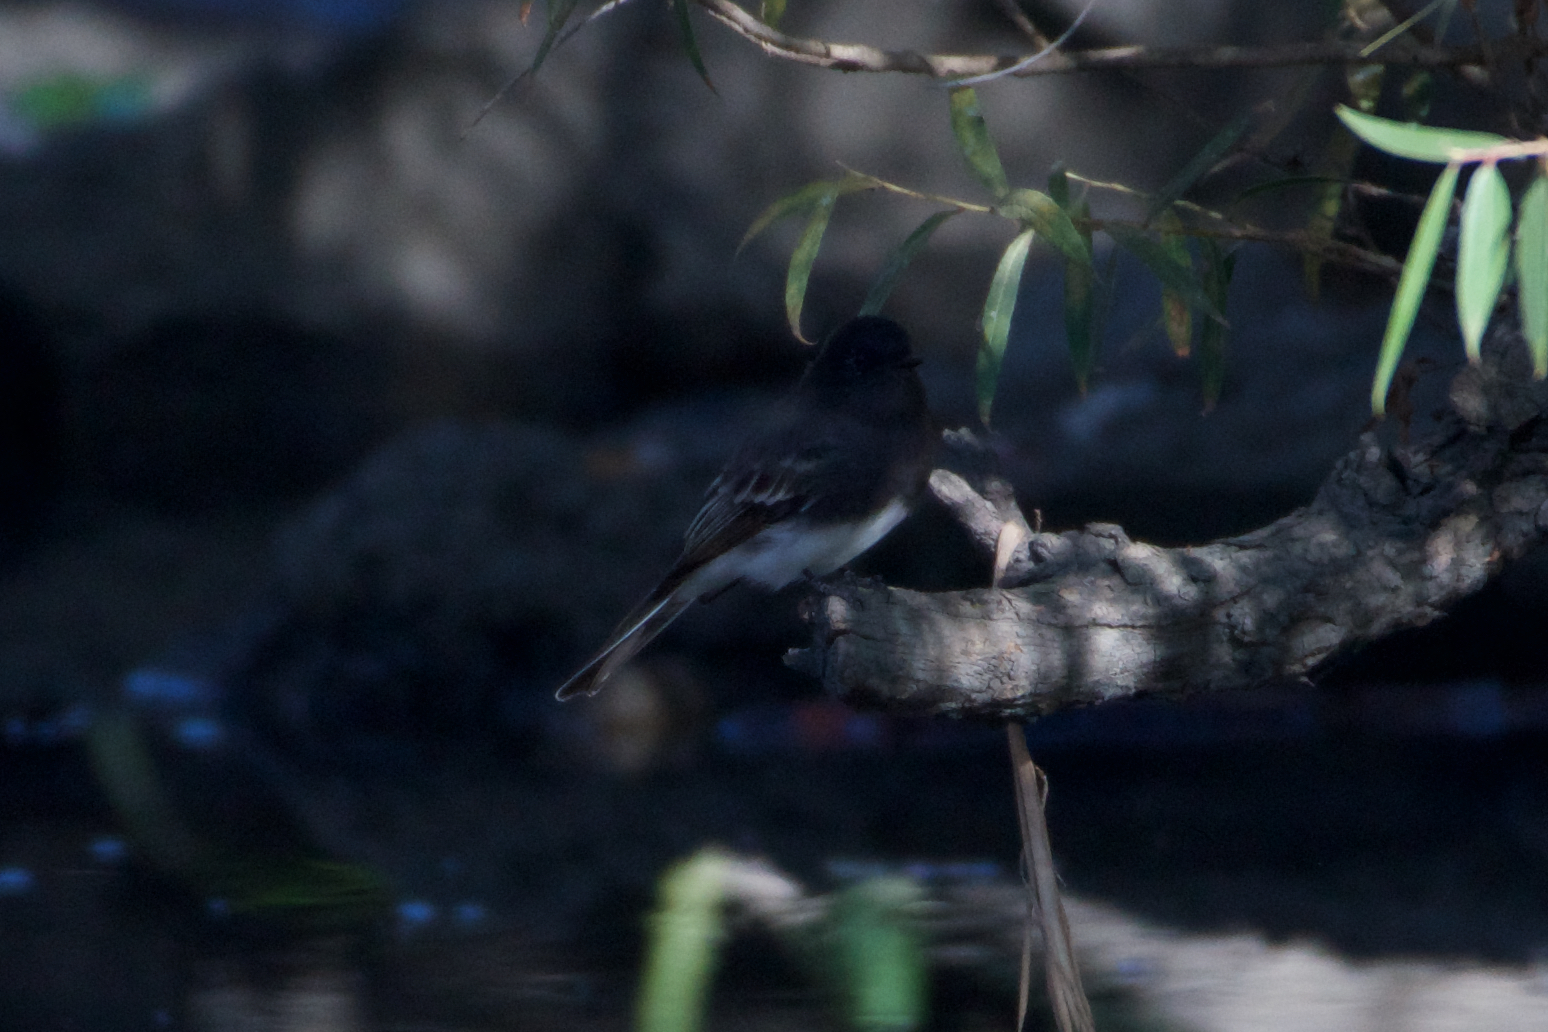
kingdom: Animalia
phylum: Chordata
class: Aves
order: Passeriformes
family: Tyrannidae
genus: Sayornis
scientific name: Sayornis nigricans
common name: Black phoebe
